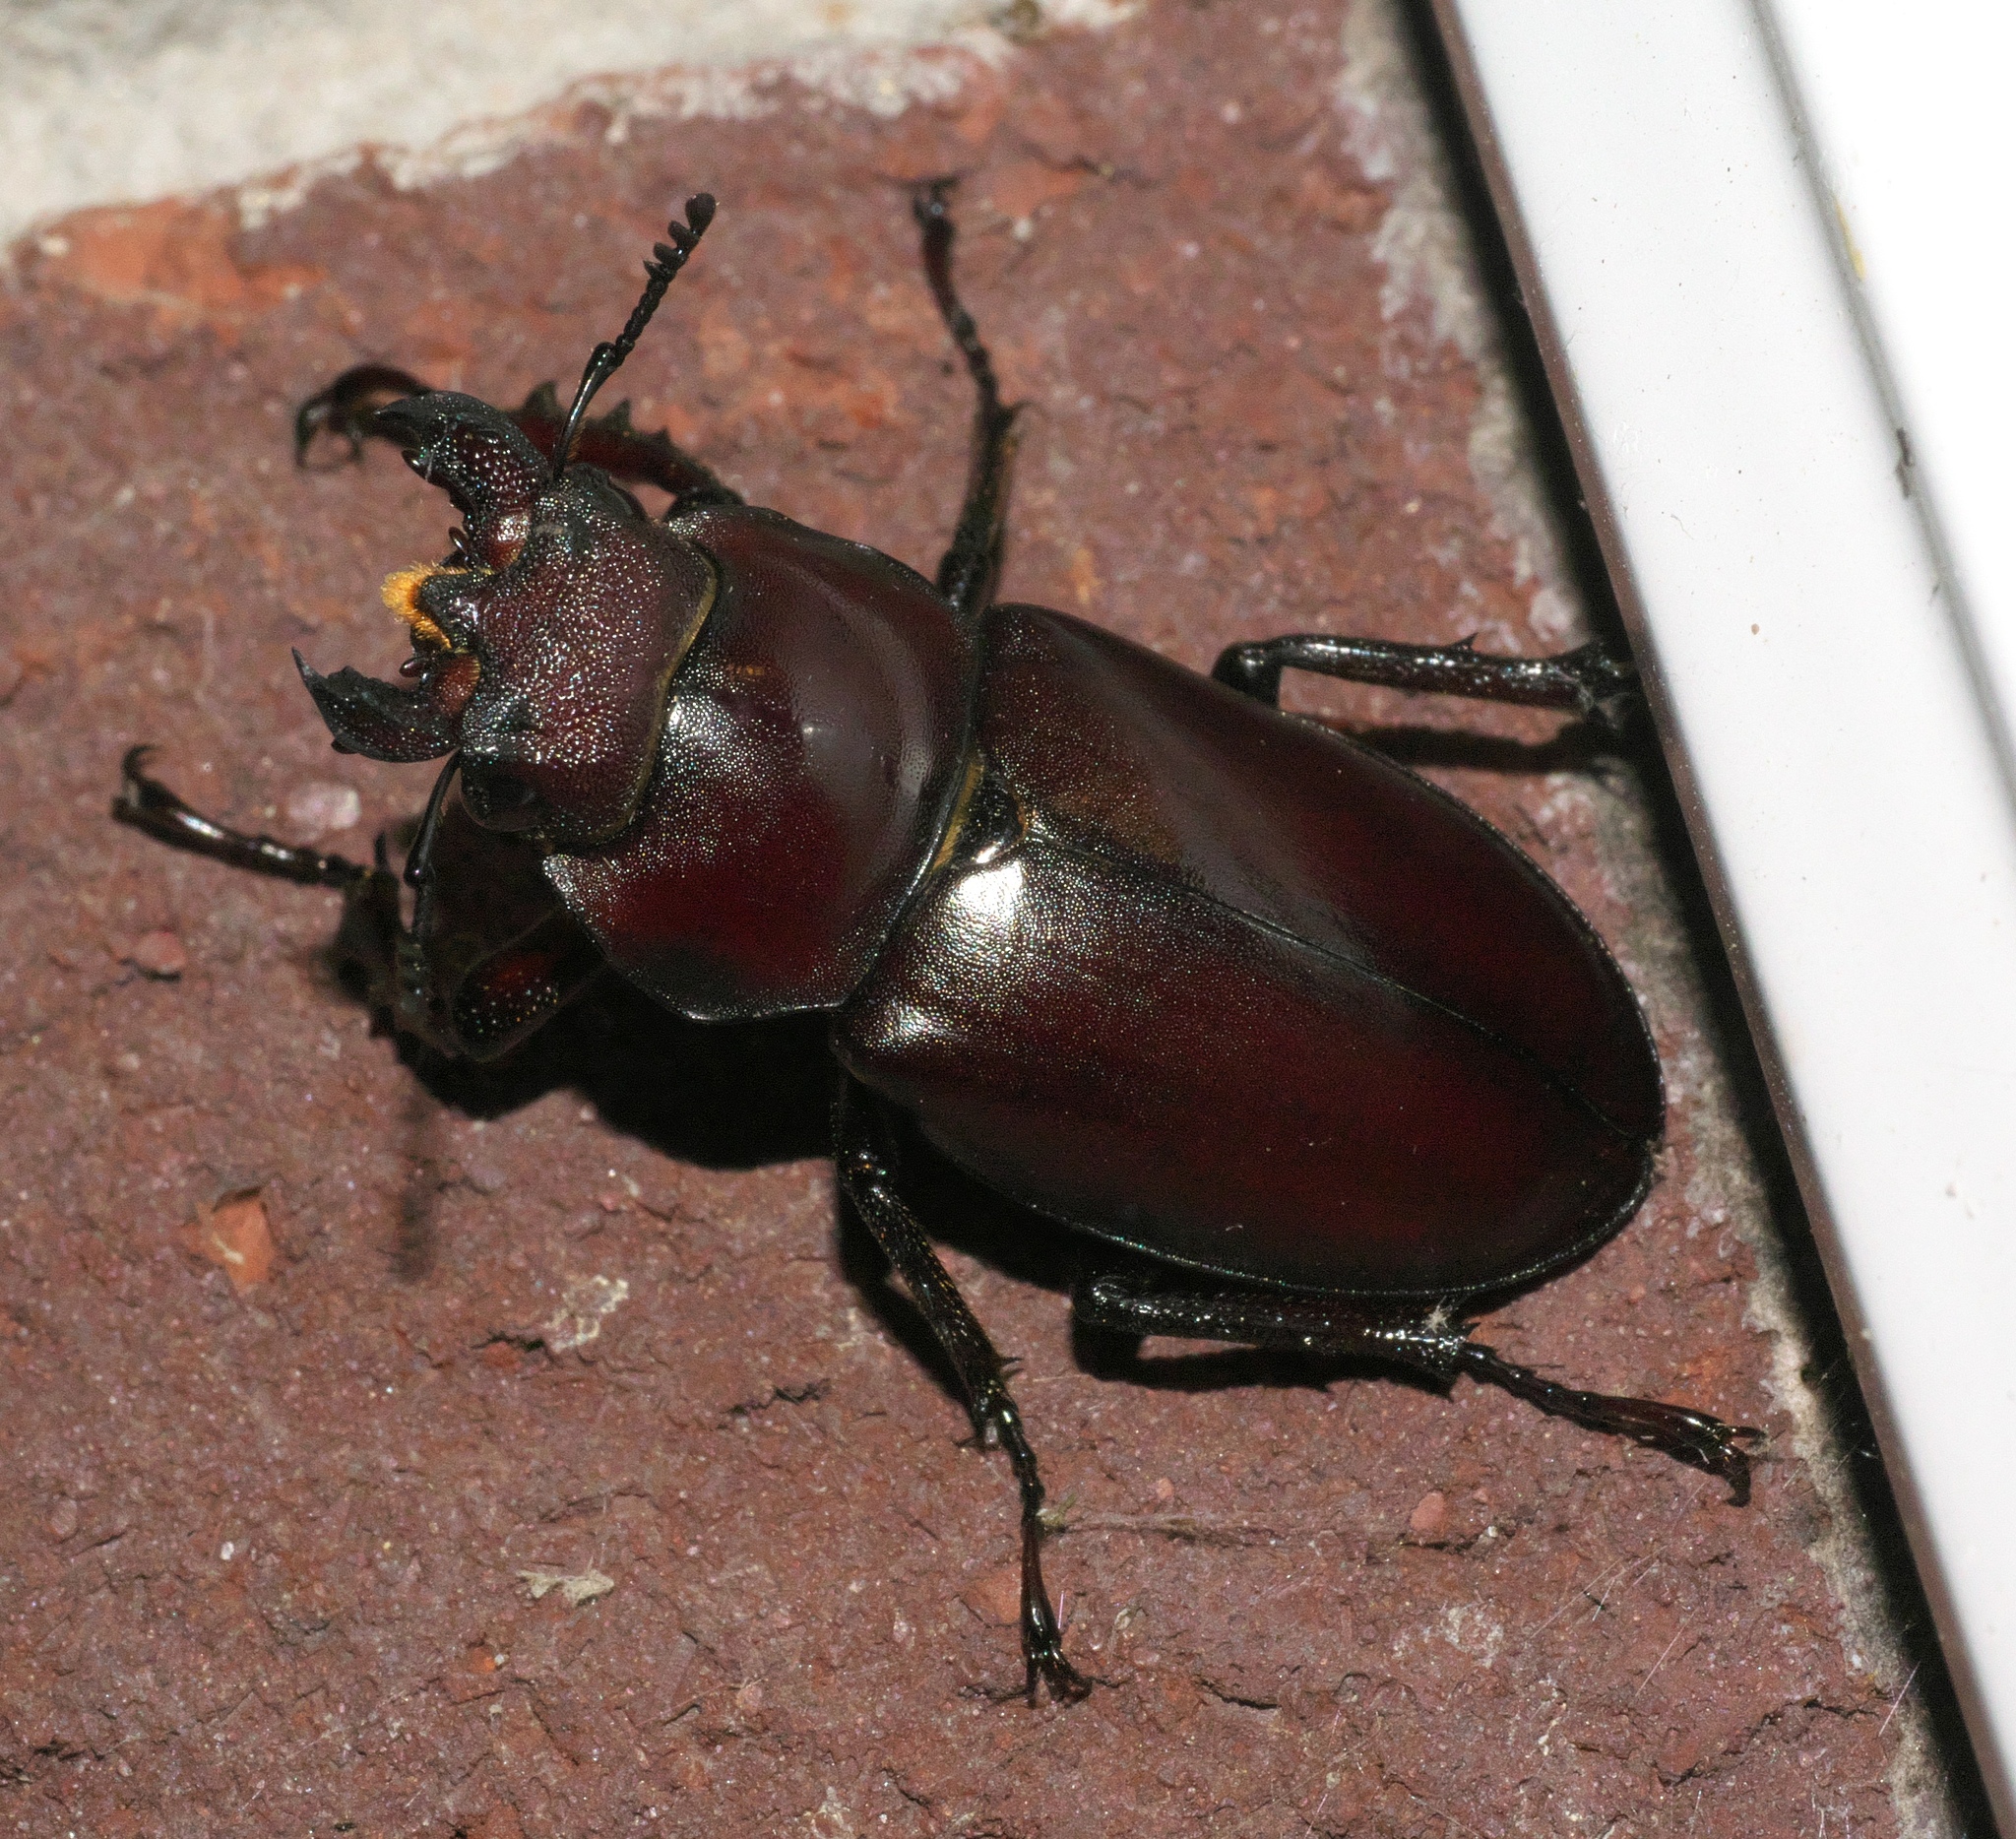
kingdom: Animalia
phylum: Arthropoda
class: Insecta
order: Coleoptera
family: Lucanidae
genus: Lucanus
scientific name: Lucanus elaphus
